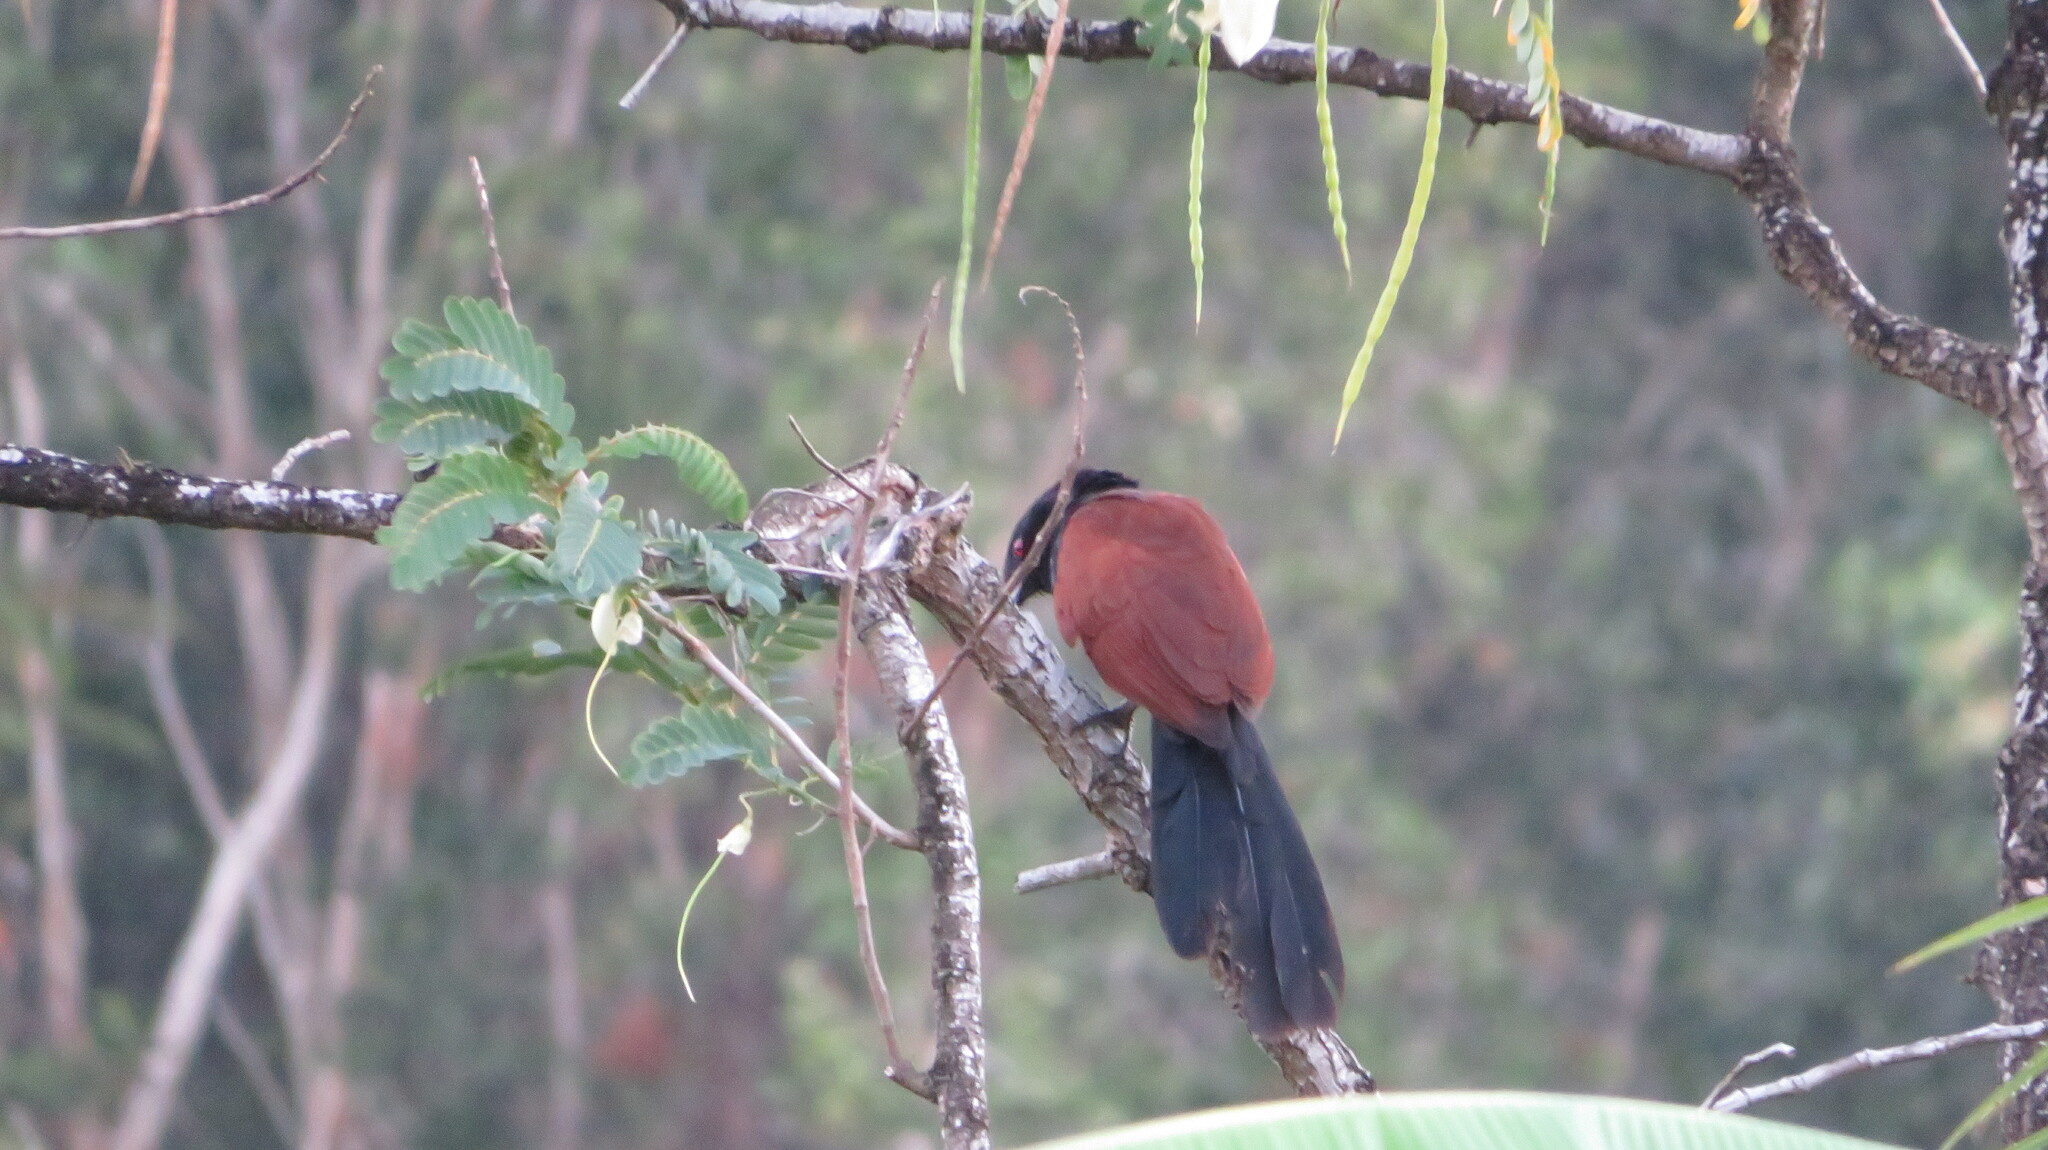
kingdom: Animalia
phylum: Chordata
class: Aves
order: Cuculiformes
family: Cuculidae
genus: Centropus
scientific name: Centropus sinensis
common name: Greater coucal
